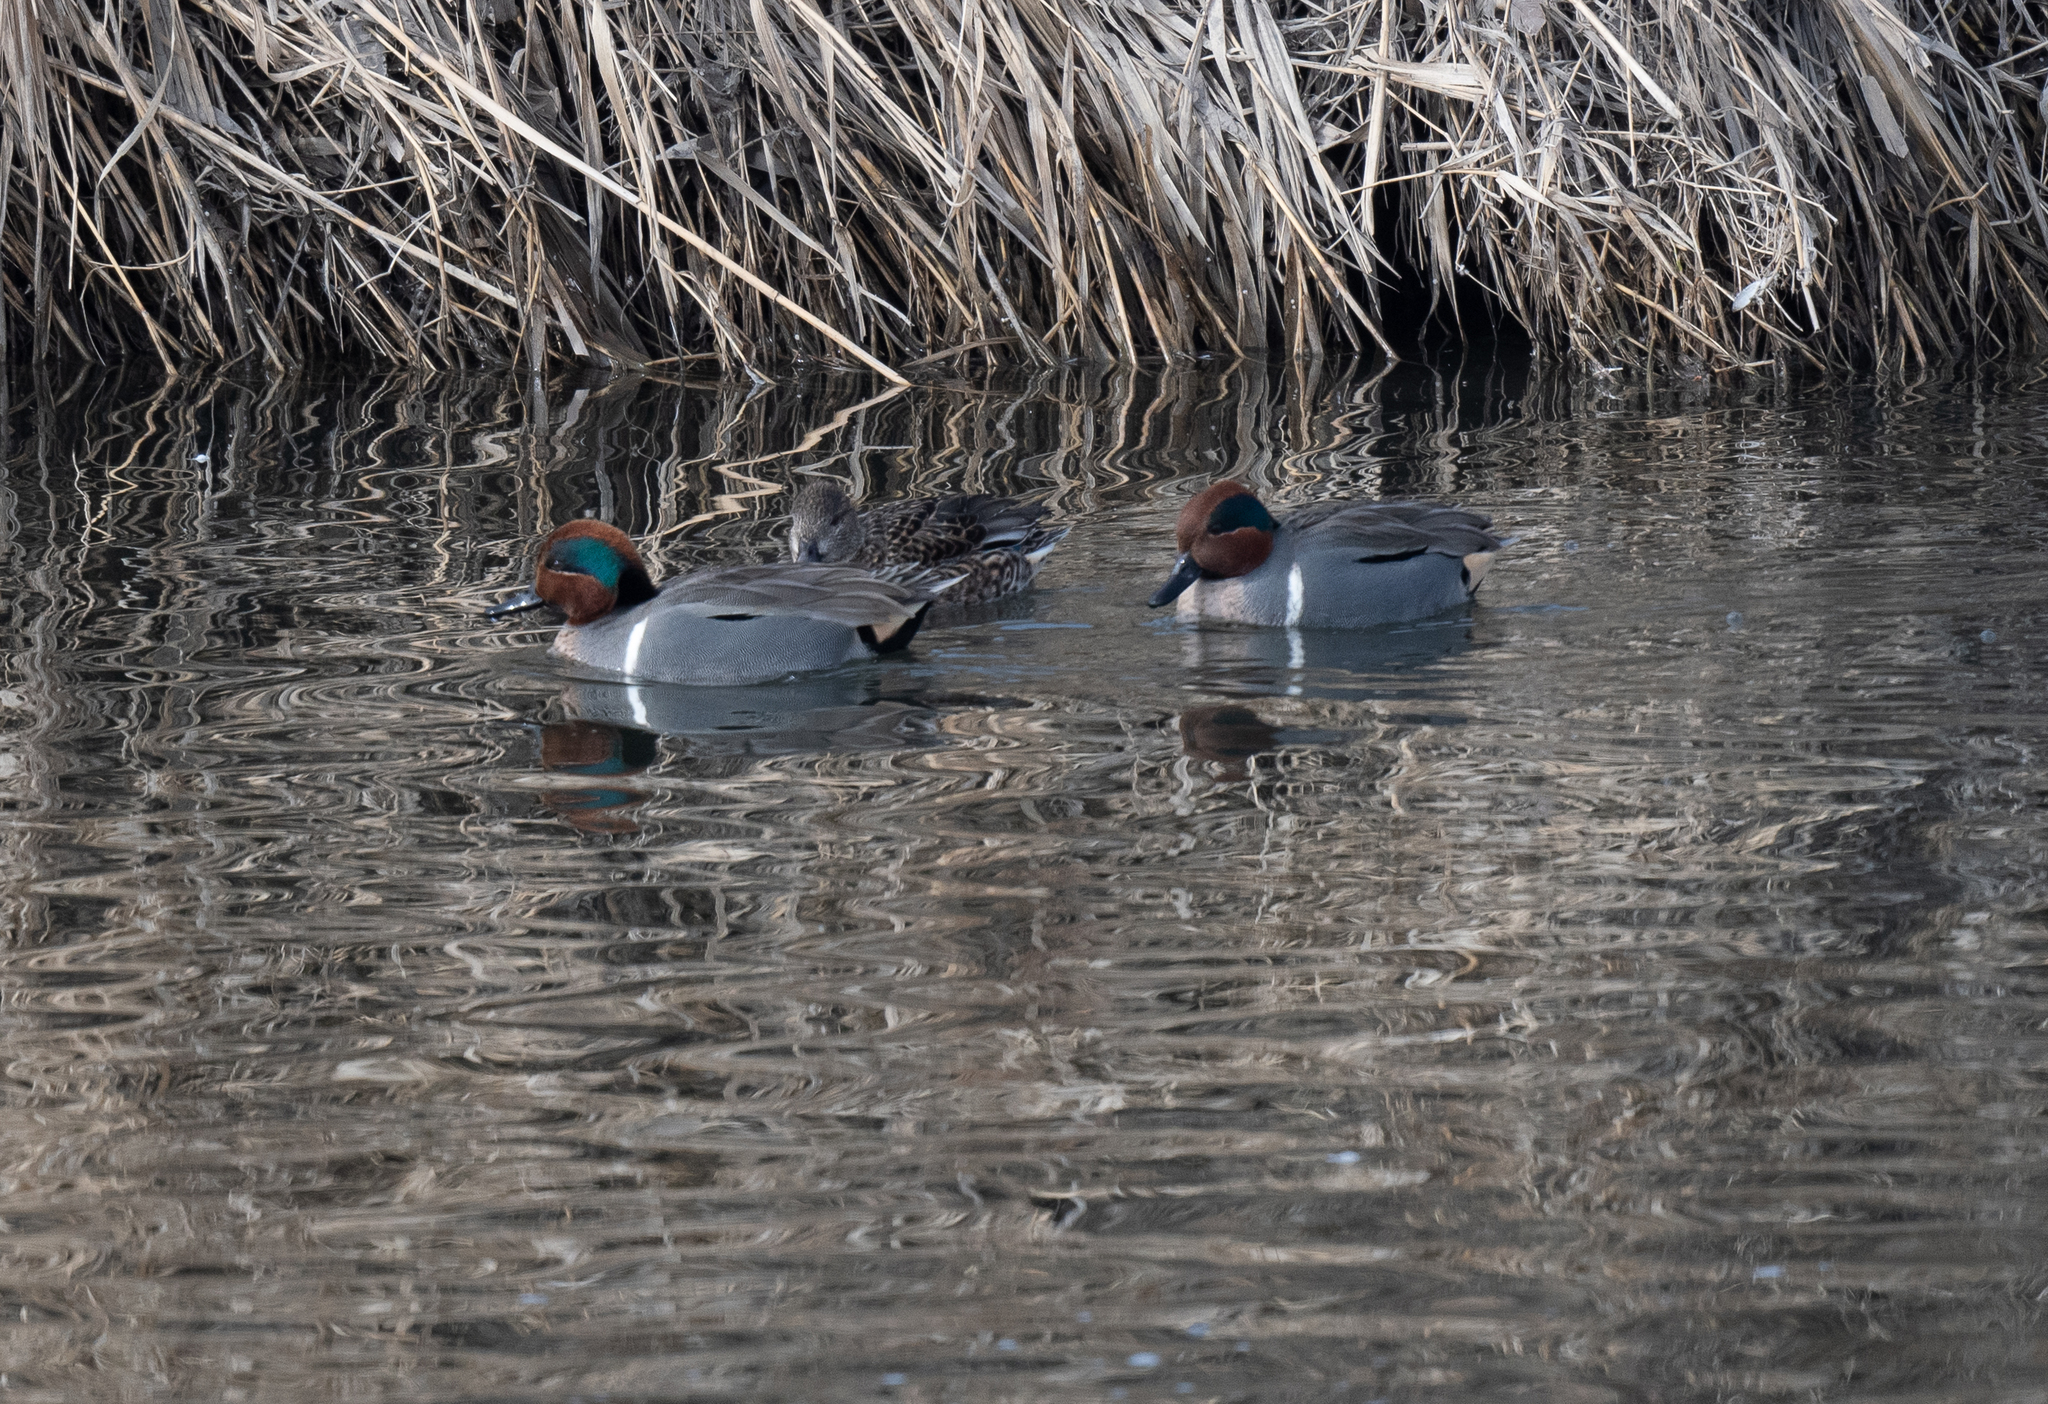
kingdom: Animalia
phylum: Chordata
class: Aves
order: Anseriformes
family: Anatidae
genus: Anas
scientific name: Anas crecca
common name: Eurasian teal
